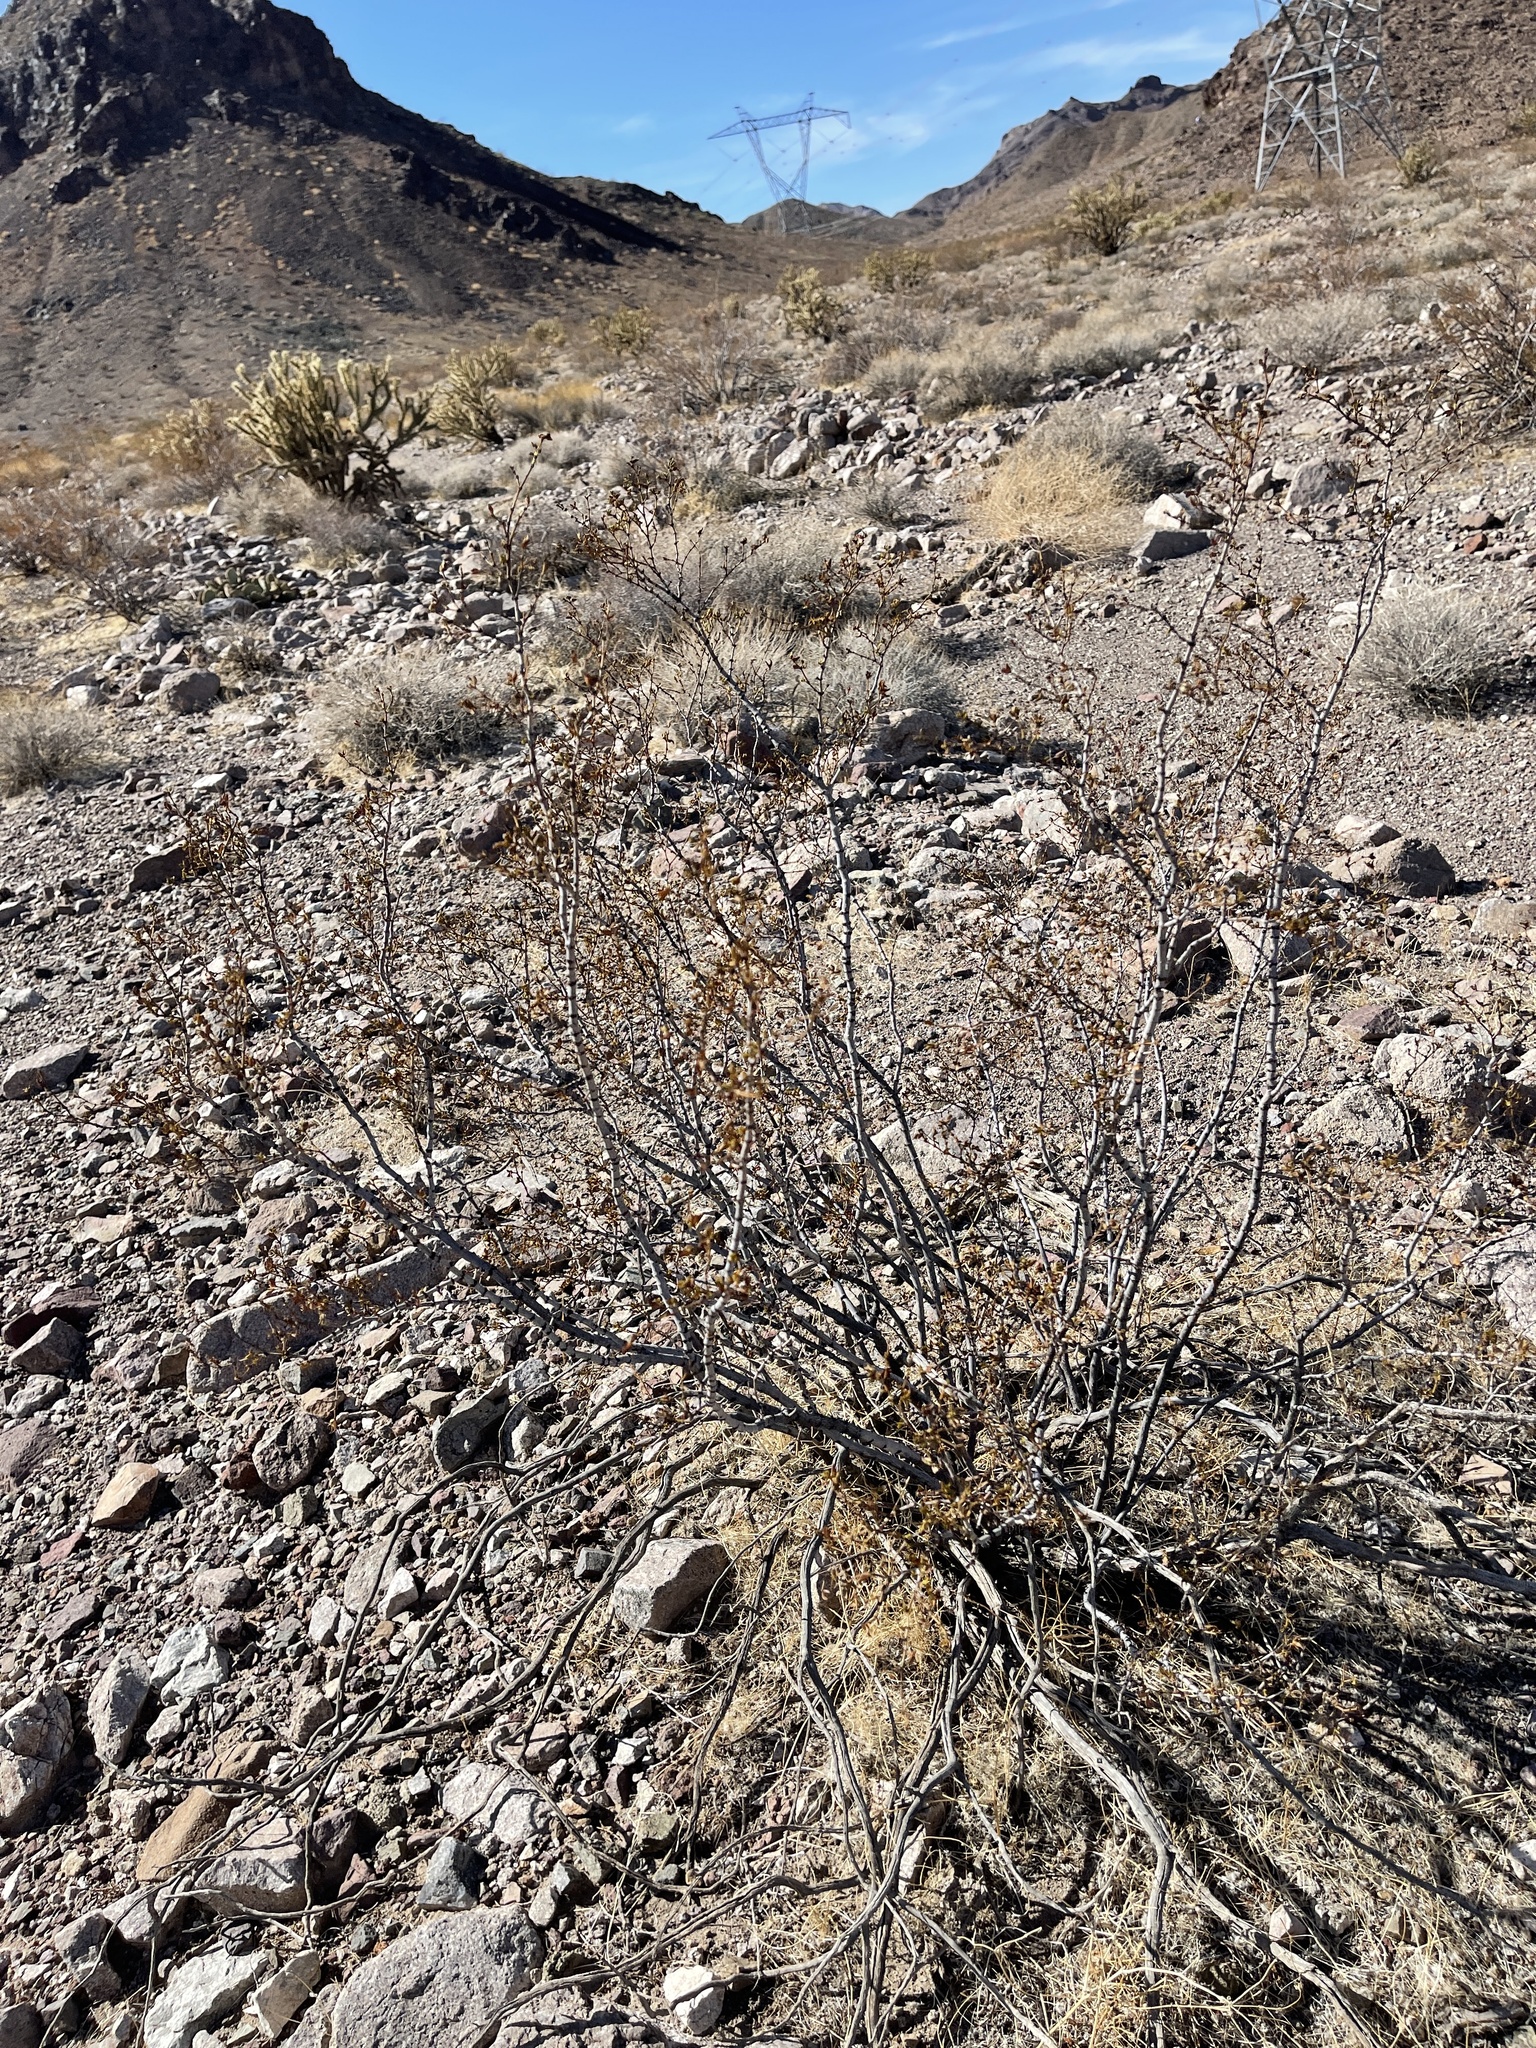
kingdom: Plantae
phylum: Tracheophyta
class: Magnoliopsida
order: Zygophyllales
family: Zygophyllaceae
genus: Larrea
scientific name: Larrea tridentata
